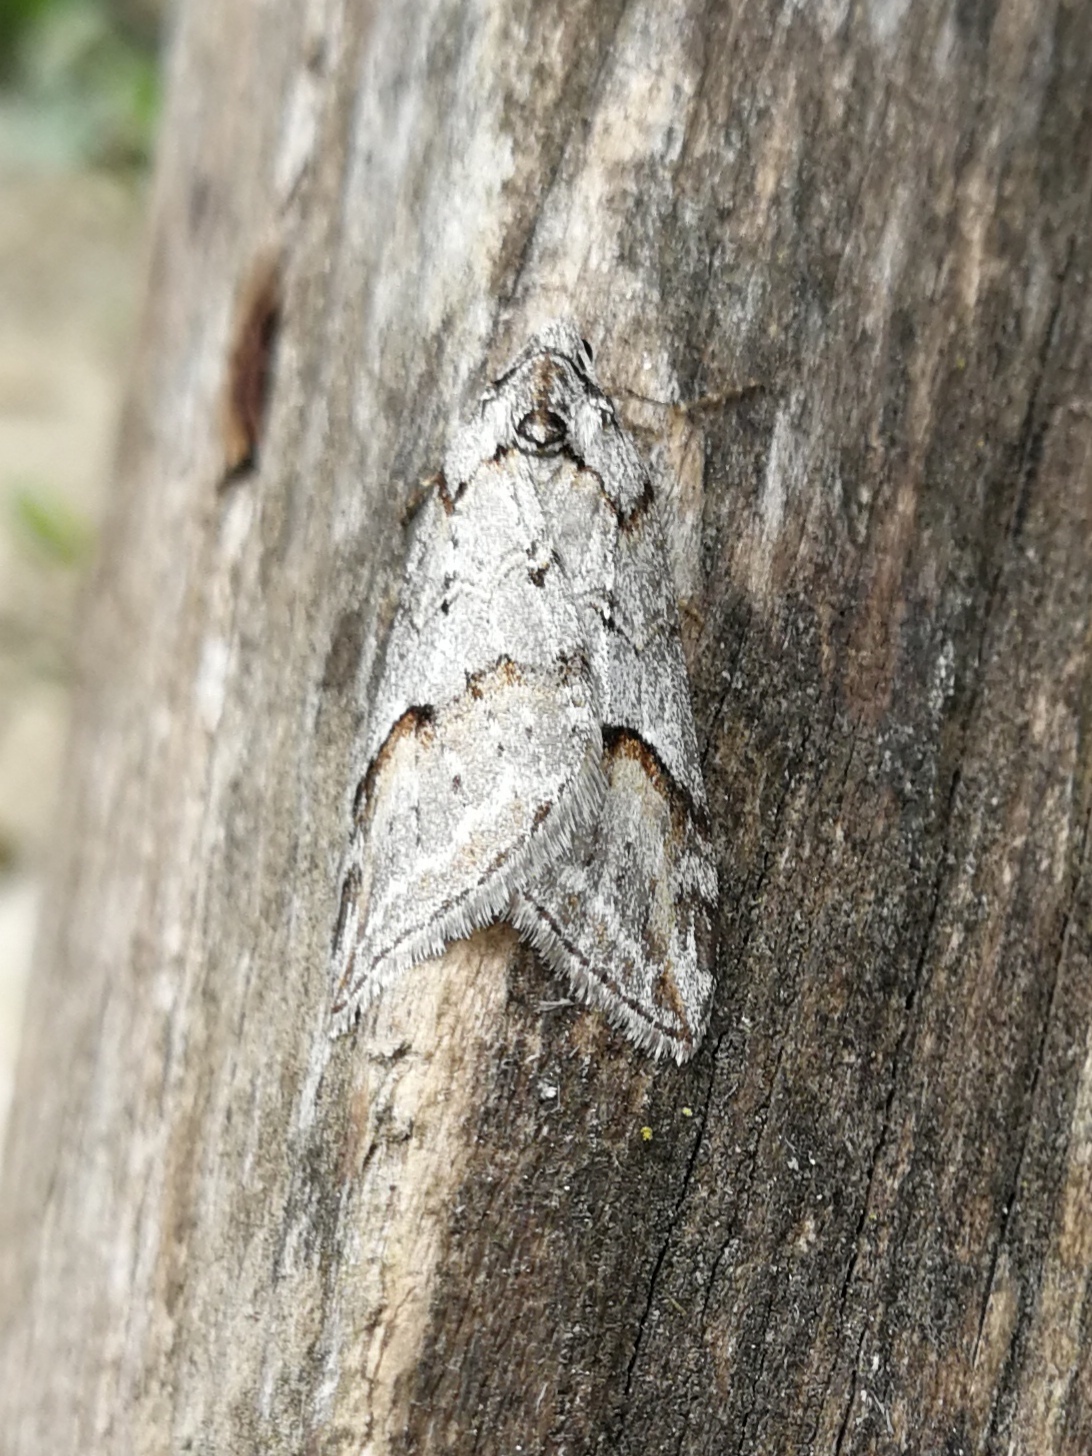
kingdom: Animalia
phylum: Arthropoda
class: Insecta
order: Lepidoptera
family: Geometridae
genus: Chesias
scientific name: Chesias rufata
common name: Broom-tip
